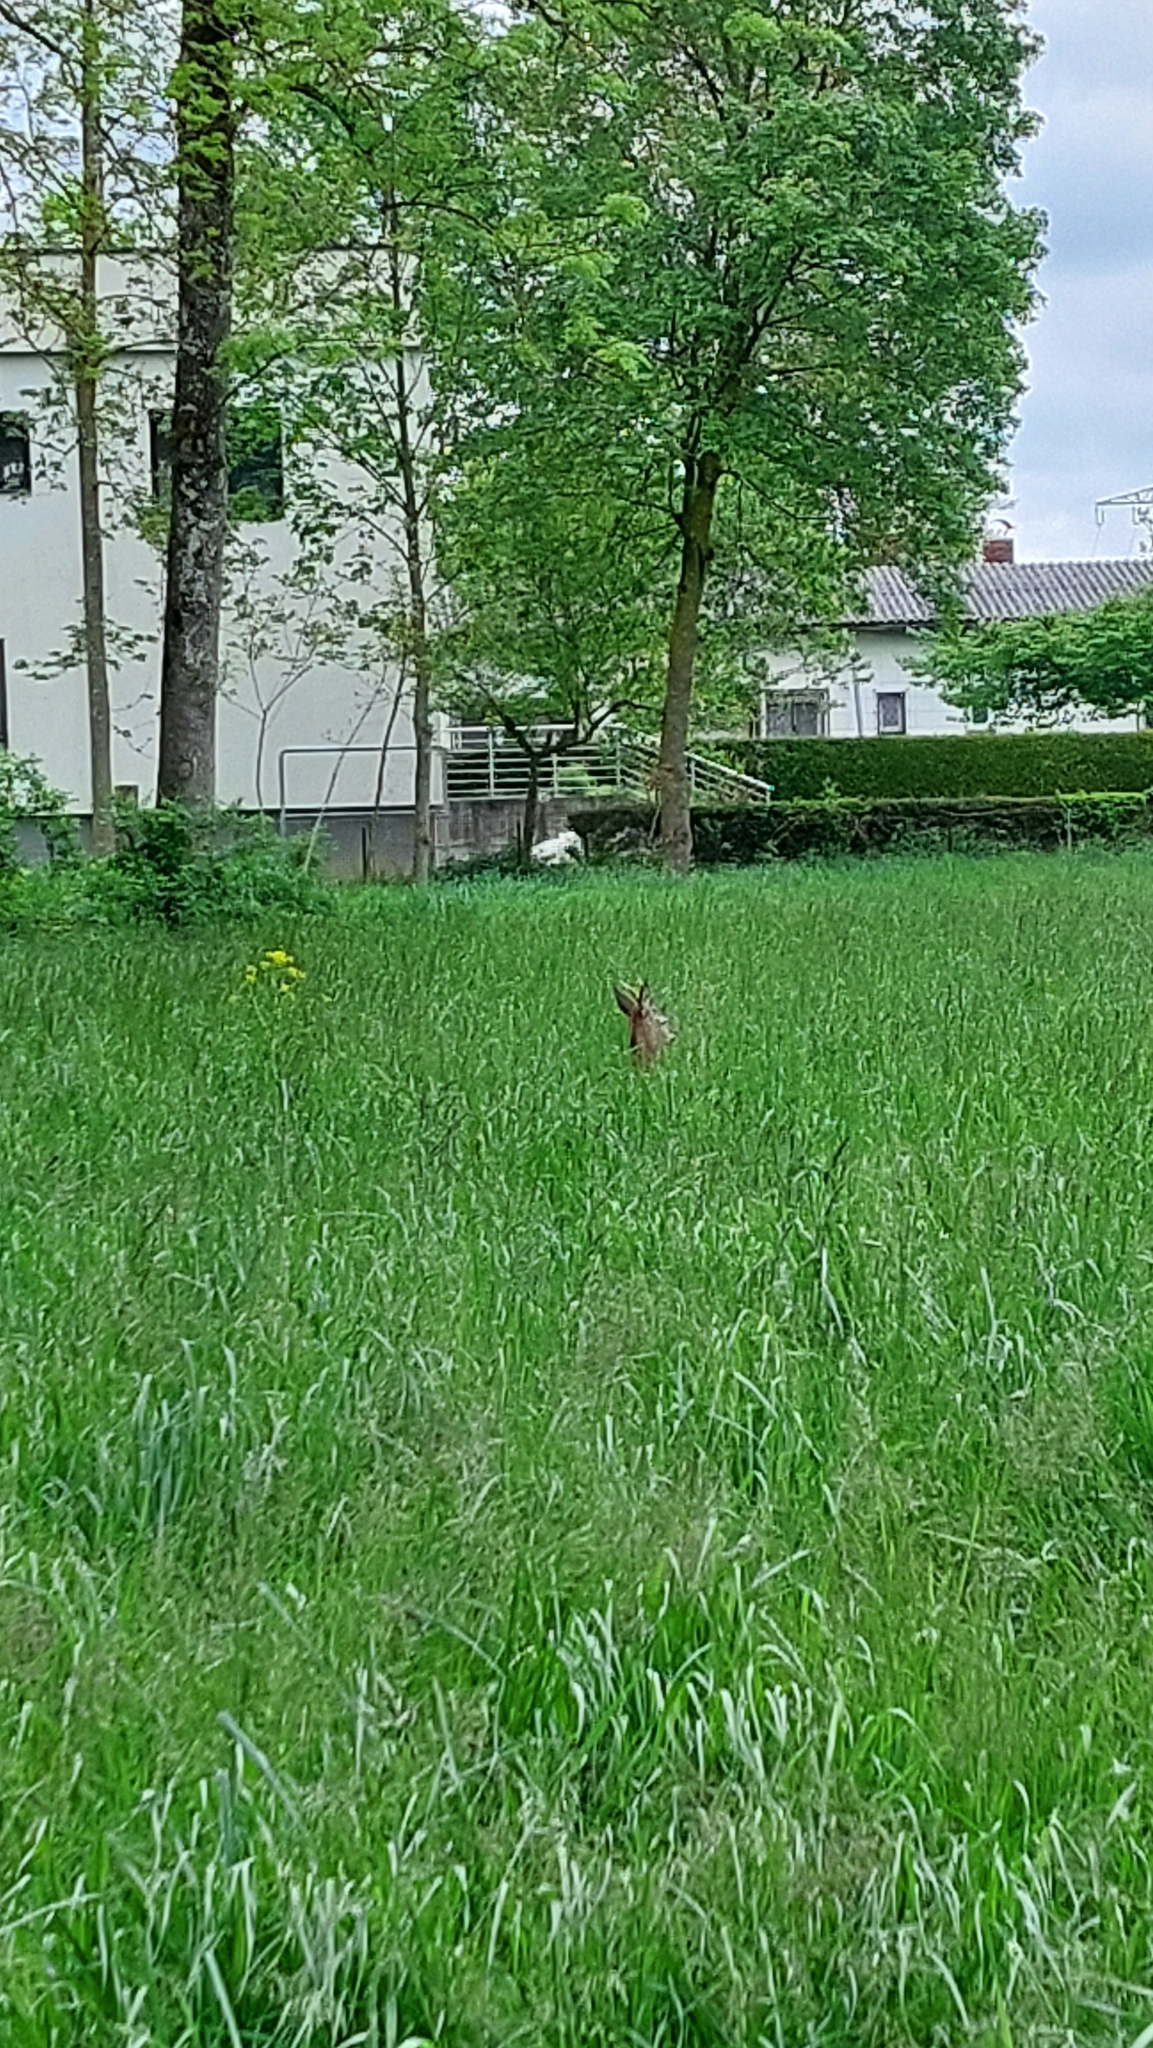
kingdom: Animalia
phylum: Chordata
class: Mammalia
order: Artiodactyla
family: Cervidae
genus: Capreolus
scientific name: Capreolus capreolus
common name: Western roe deer
